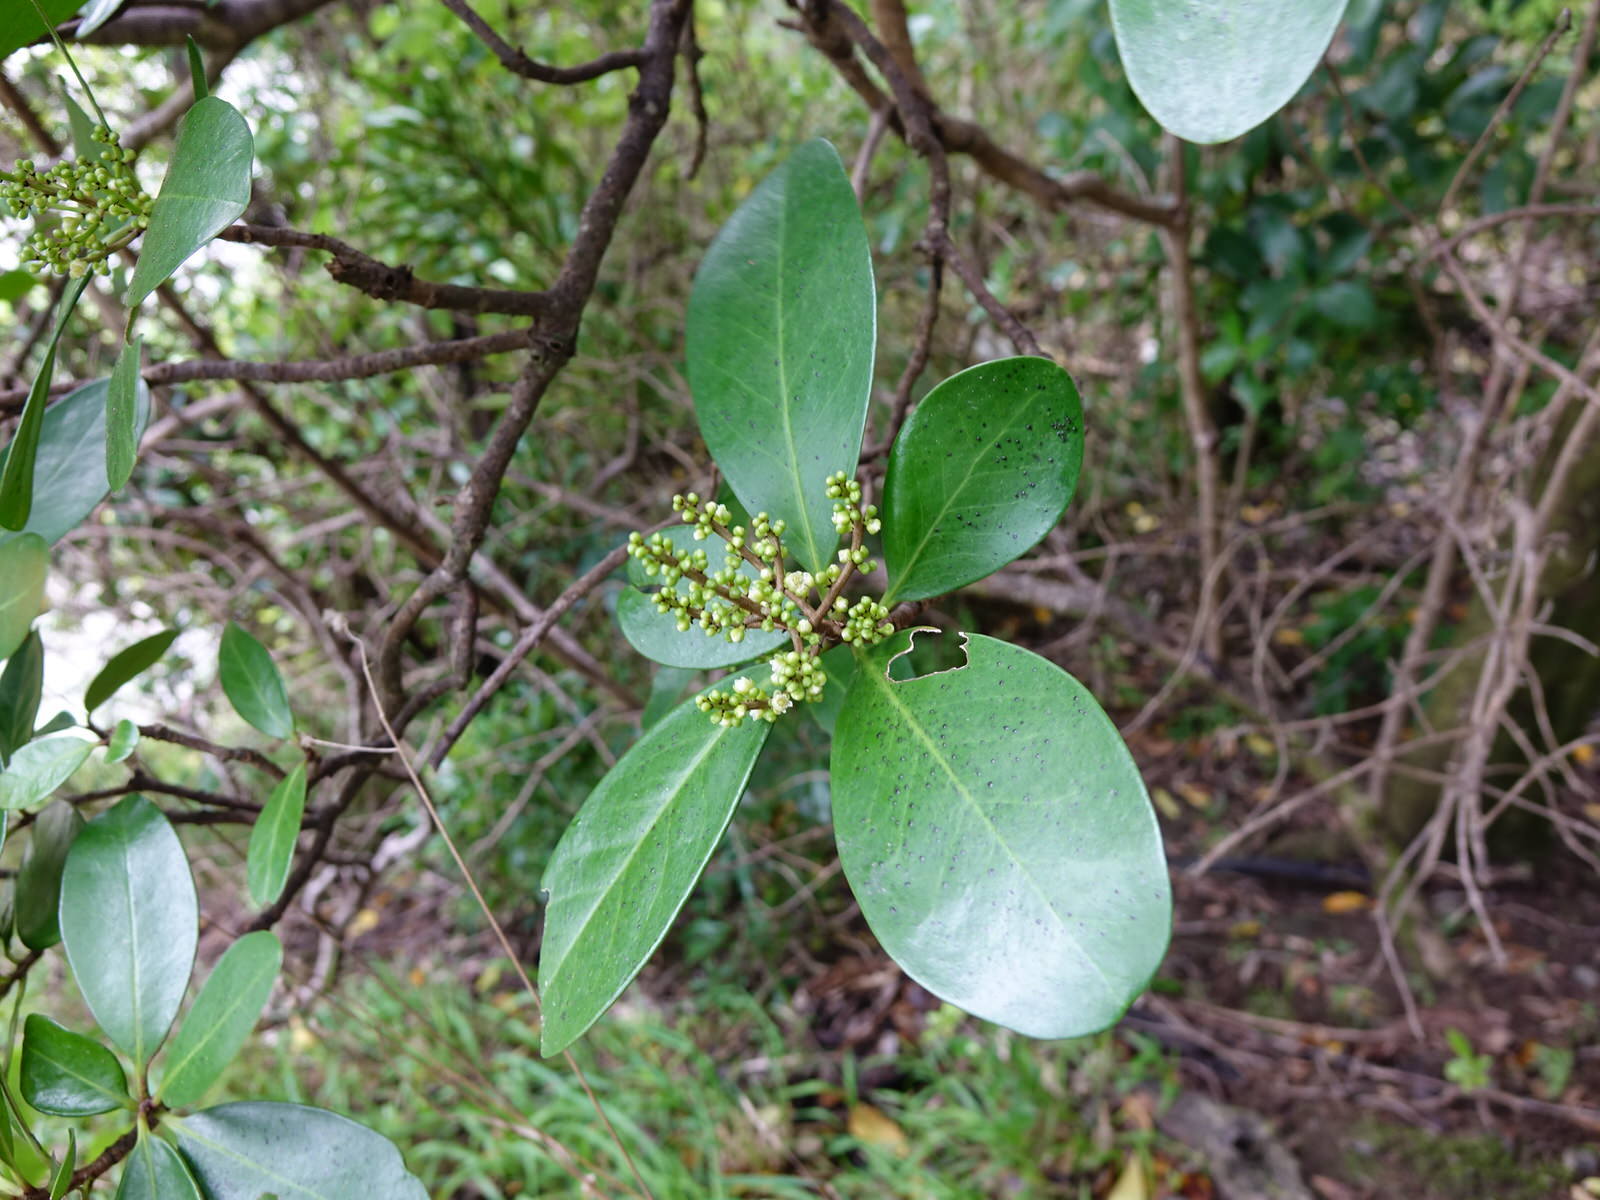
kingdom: Plantae
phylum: Tracheophyta
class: Magnoliopsida
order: Cucurbitales
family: Corynocarpaceae
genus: Corynocarpus
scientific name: Corynocarpus laevigatus
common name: New zealand laurel
